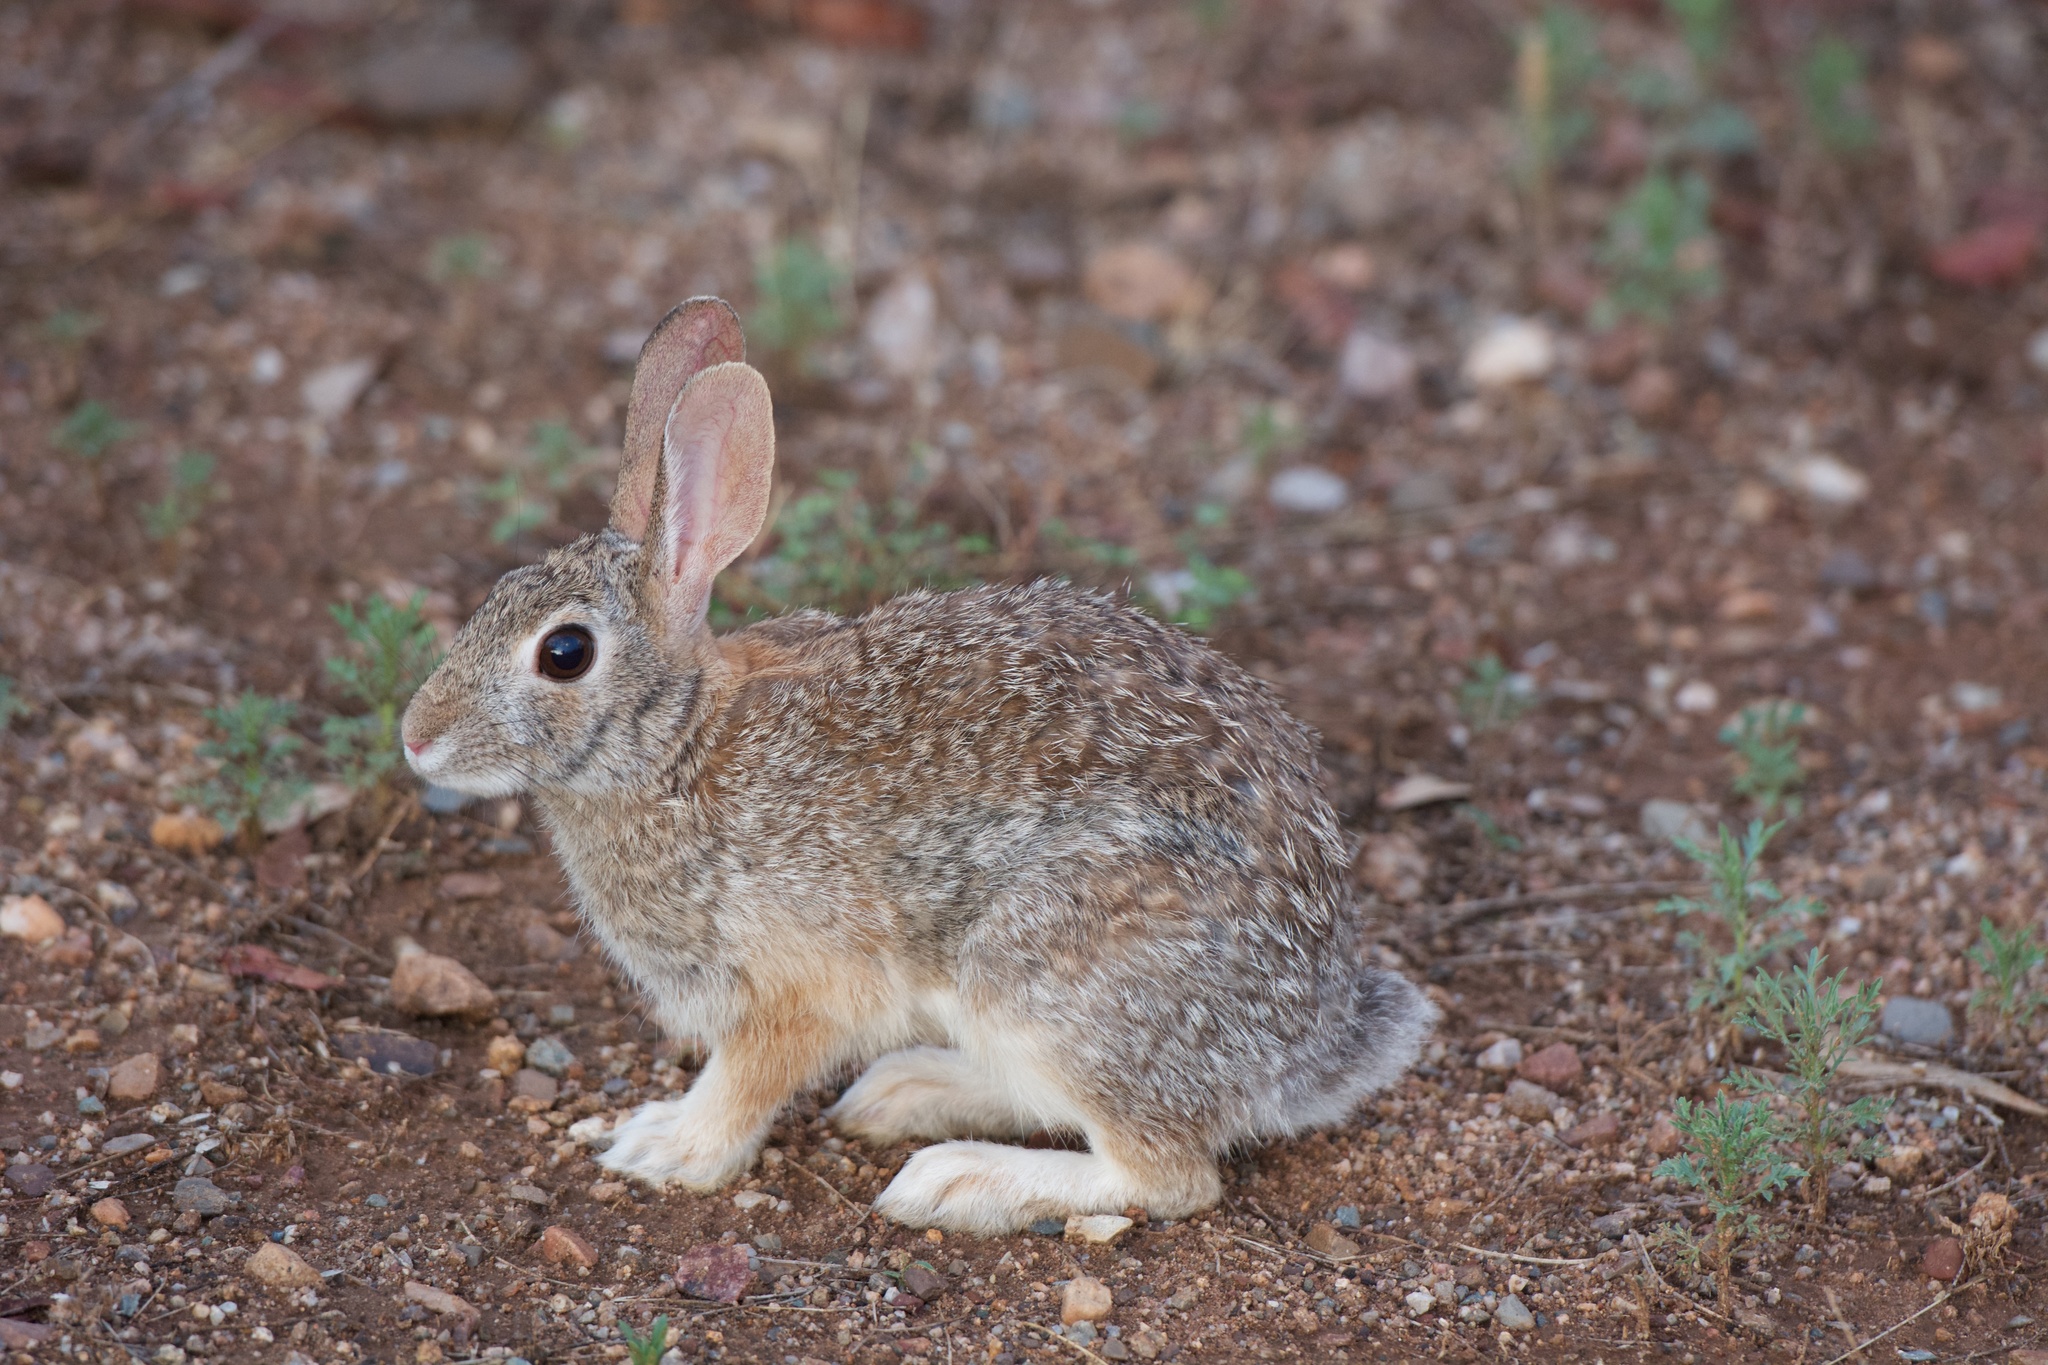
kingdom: Animalia
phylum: Chordata
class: Mammalia
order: Lagomorpha
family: Leporidae
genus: Sylvilagus
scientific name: Sylvilagus audubonii
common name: Desert cottontail
